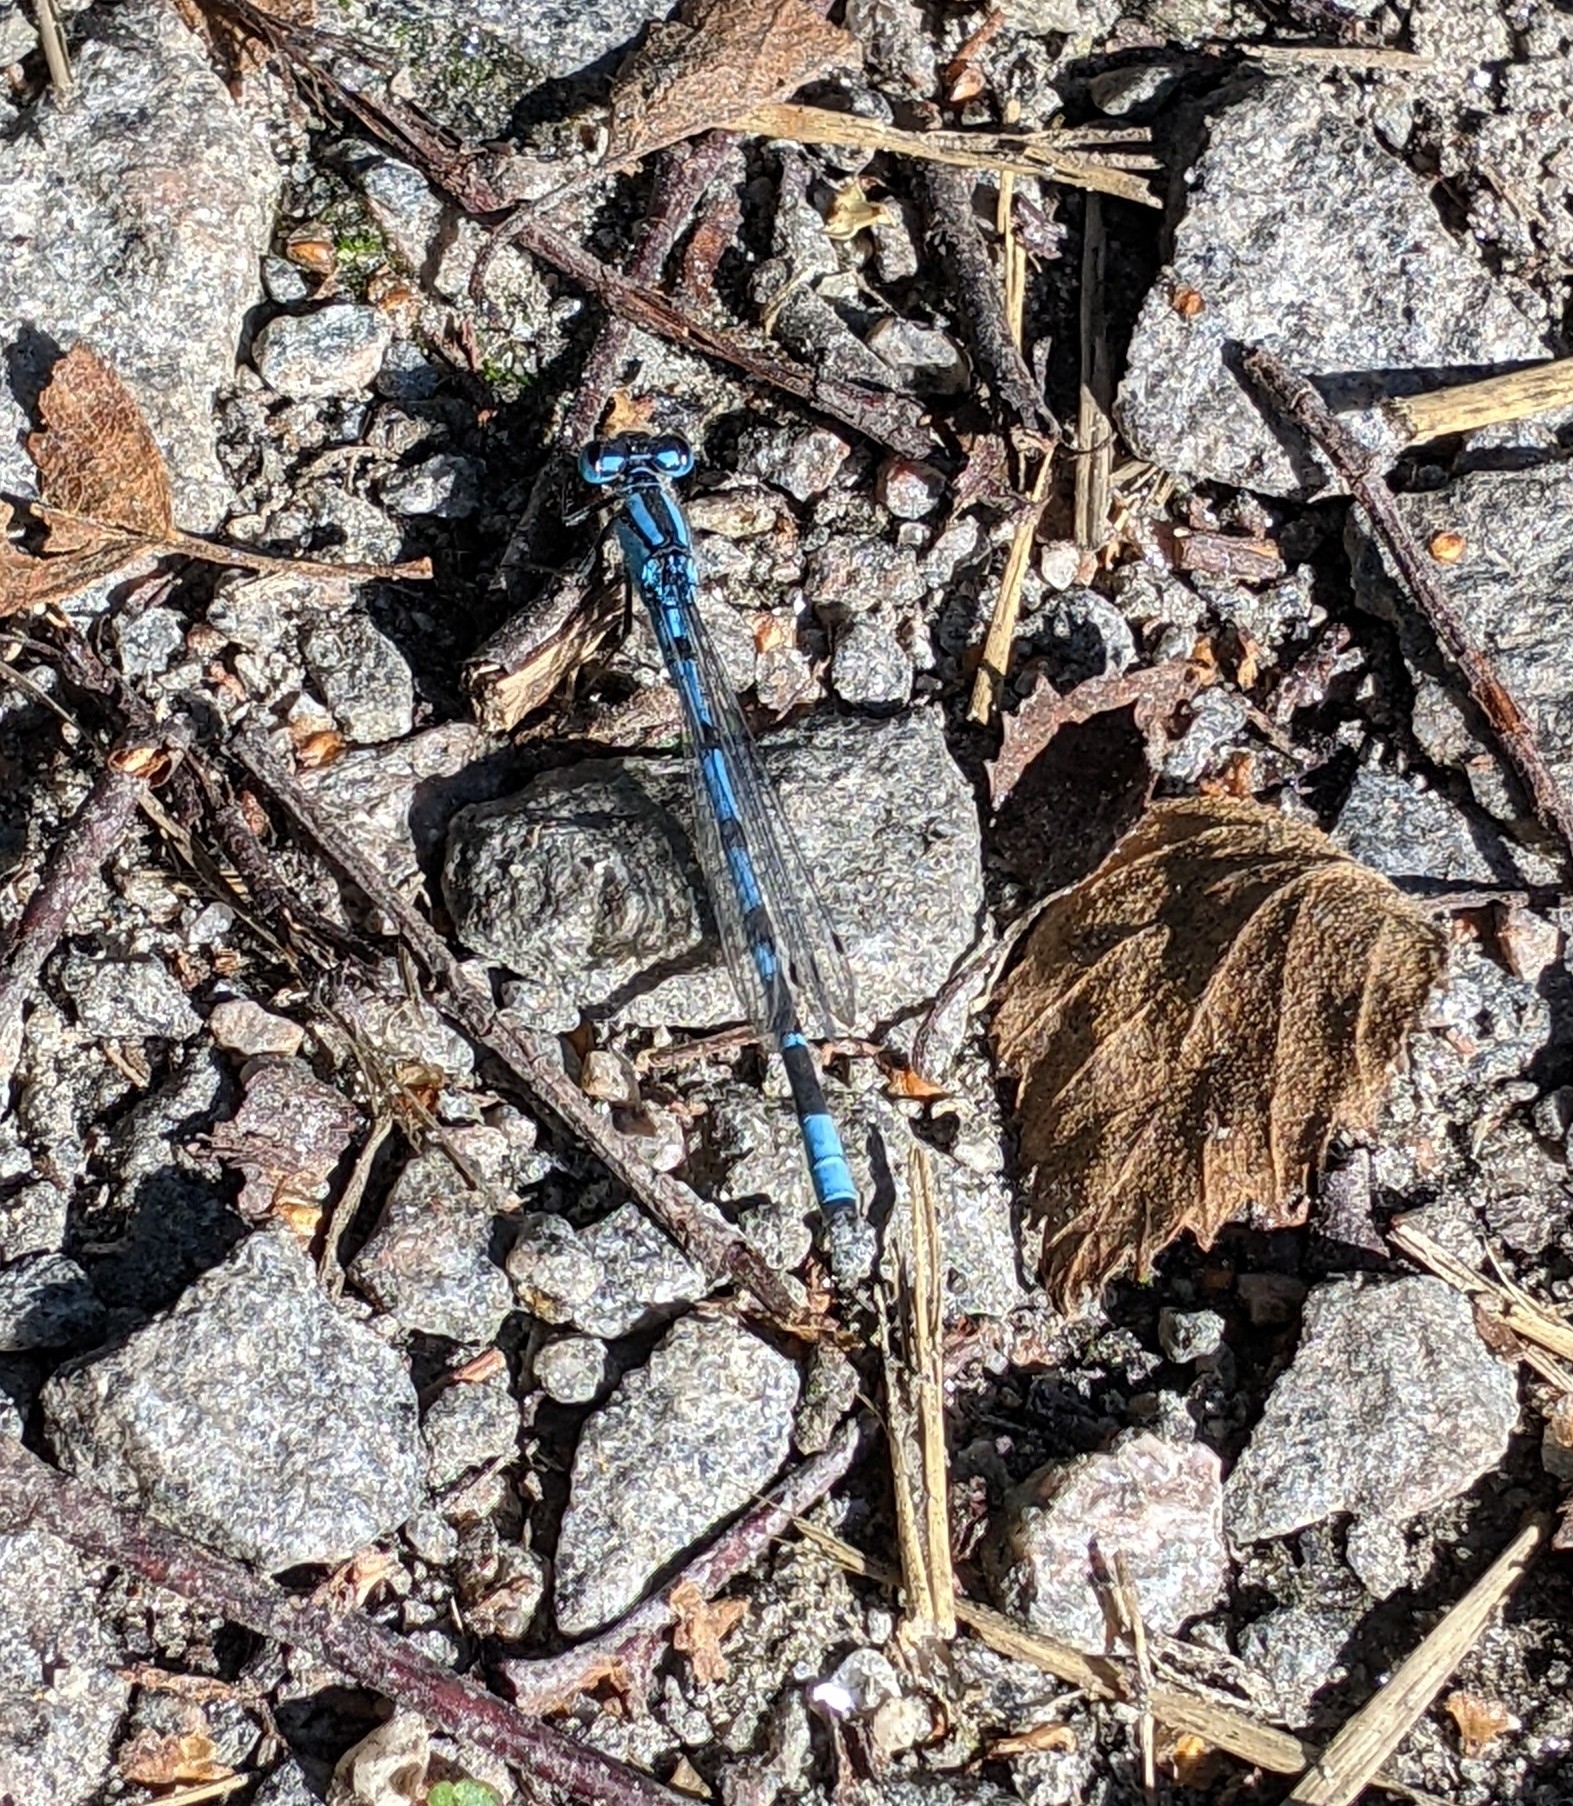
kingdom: Animalia
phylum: Arthropoda
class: Insecta
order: Odonata
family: Coenagrionidae
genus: Enallagma
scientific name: Enallagma cyathigerum
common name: Common blue damselfly
